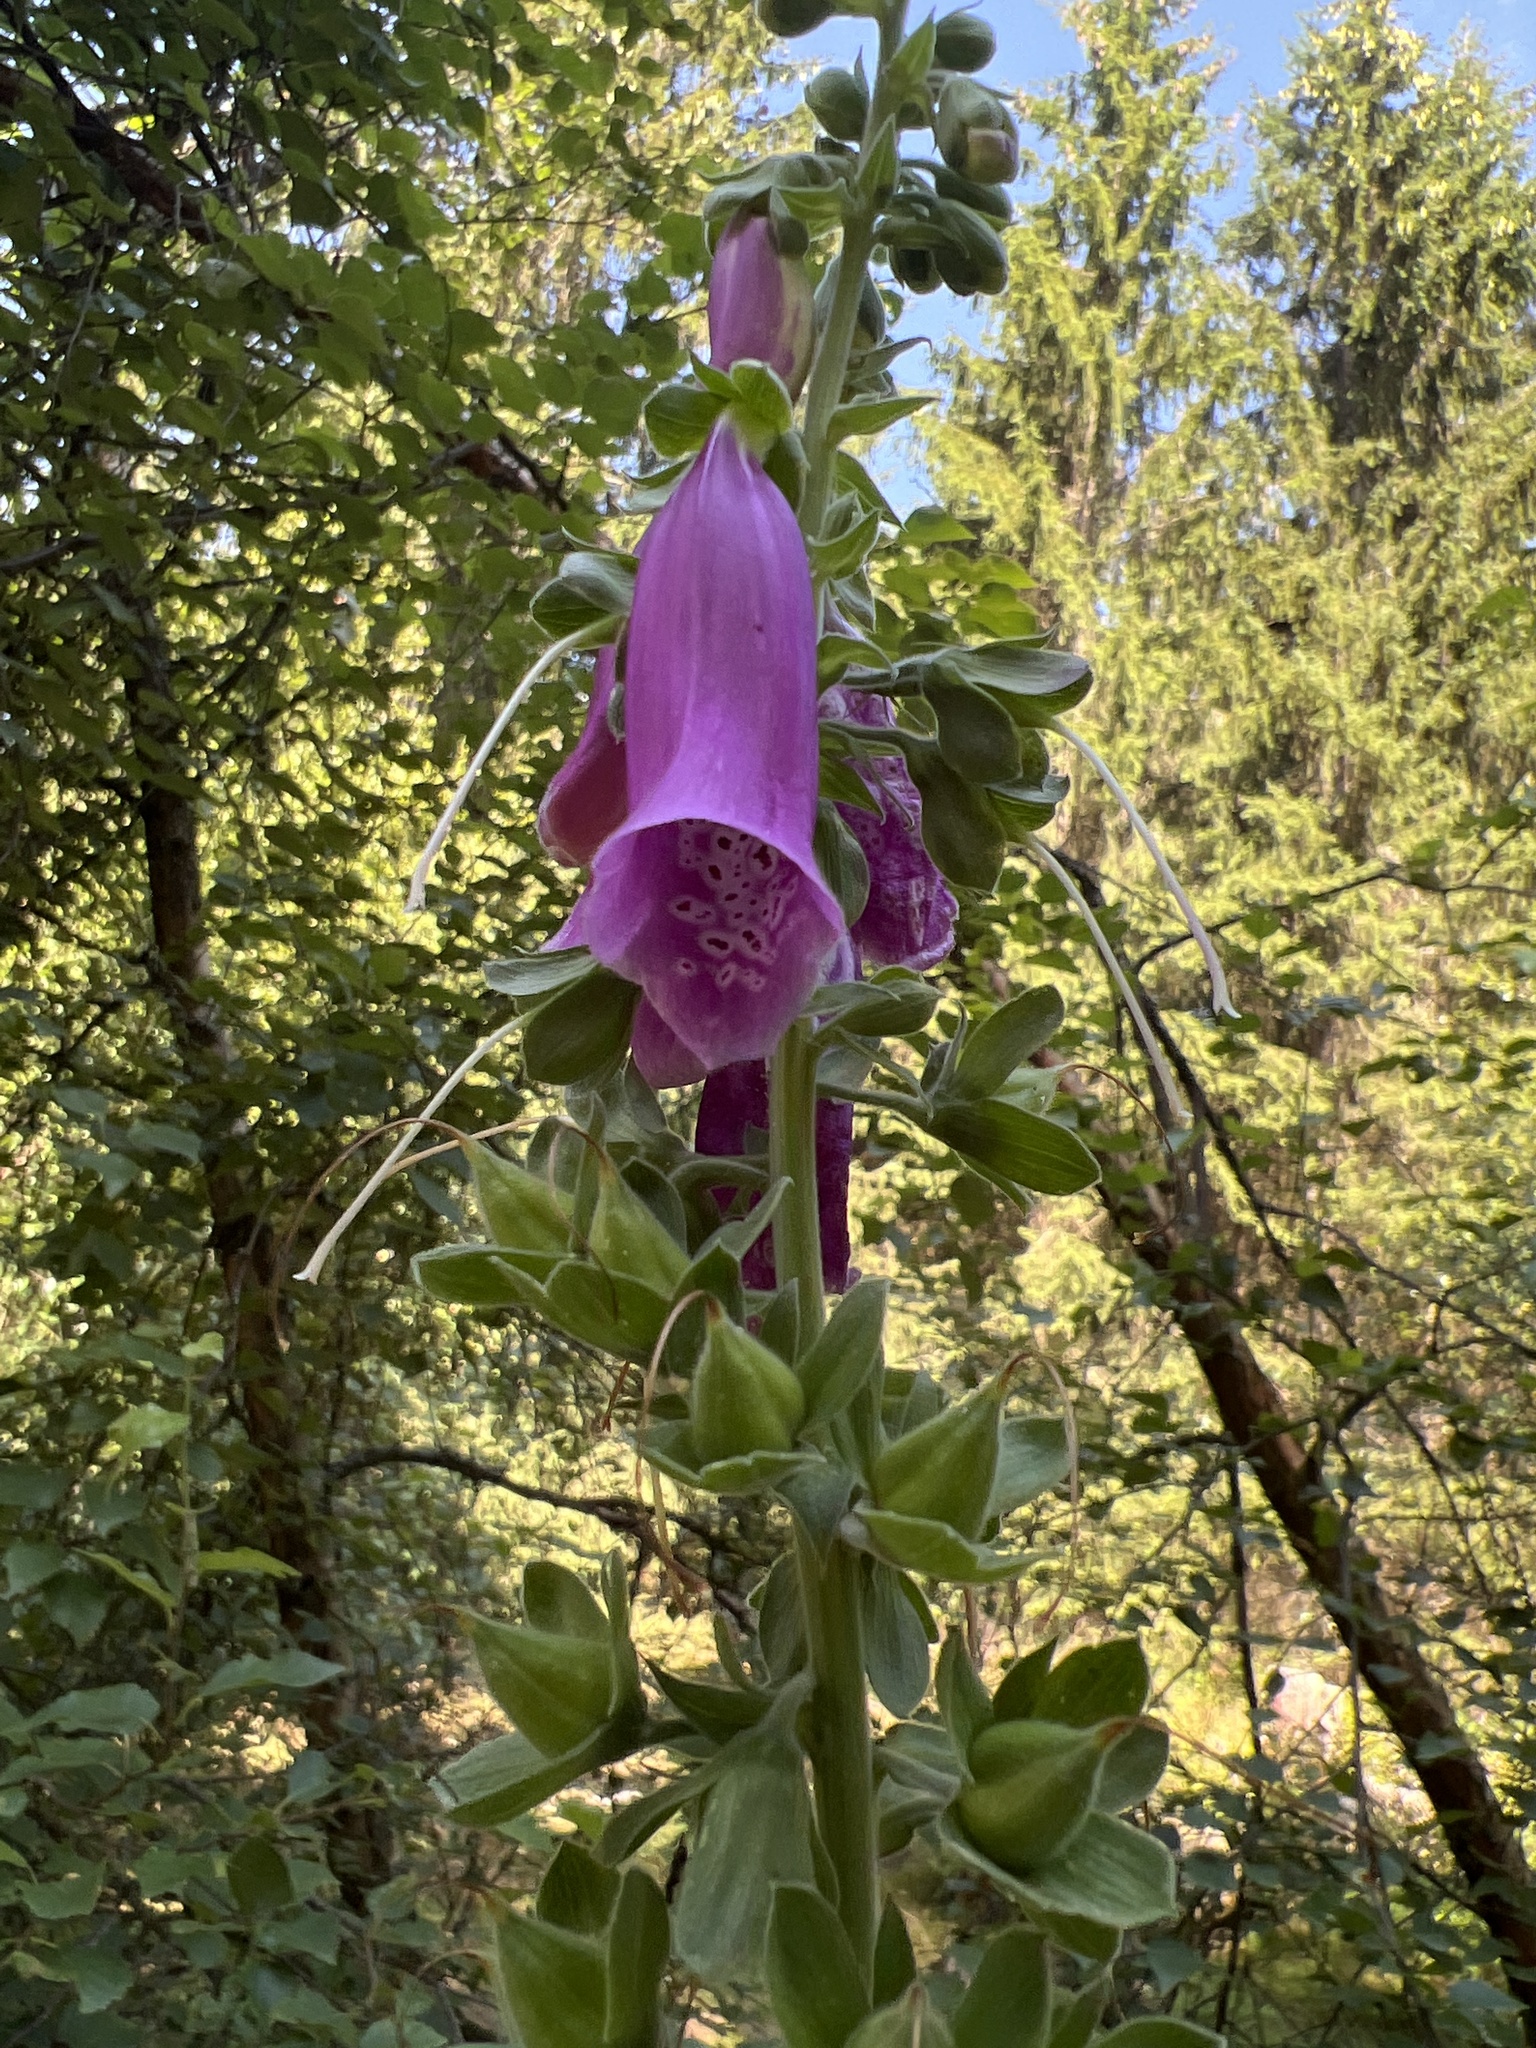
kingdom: Plantae
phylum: Tracheophyta
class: Magnoliopsida
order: Lamiales
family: Plantaginaceae
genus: Digitalis
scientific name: Digitalis purpurea
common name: Foxglove
